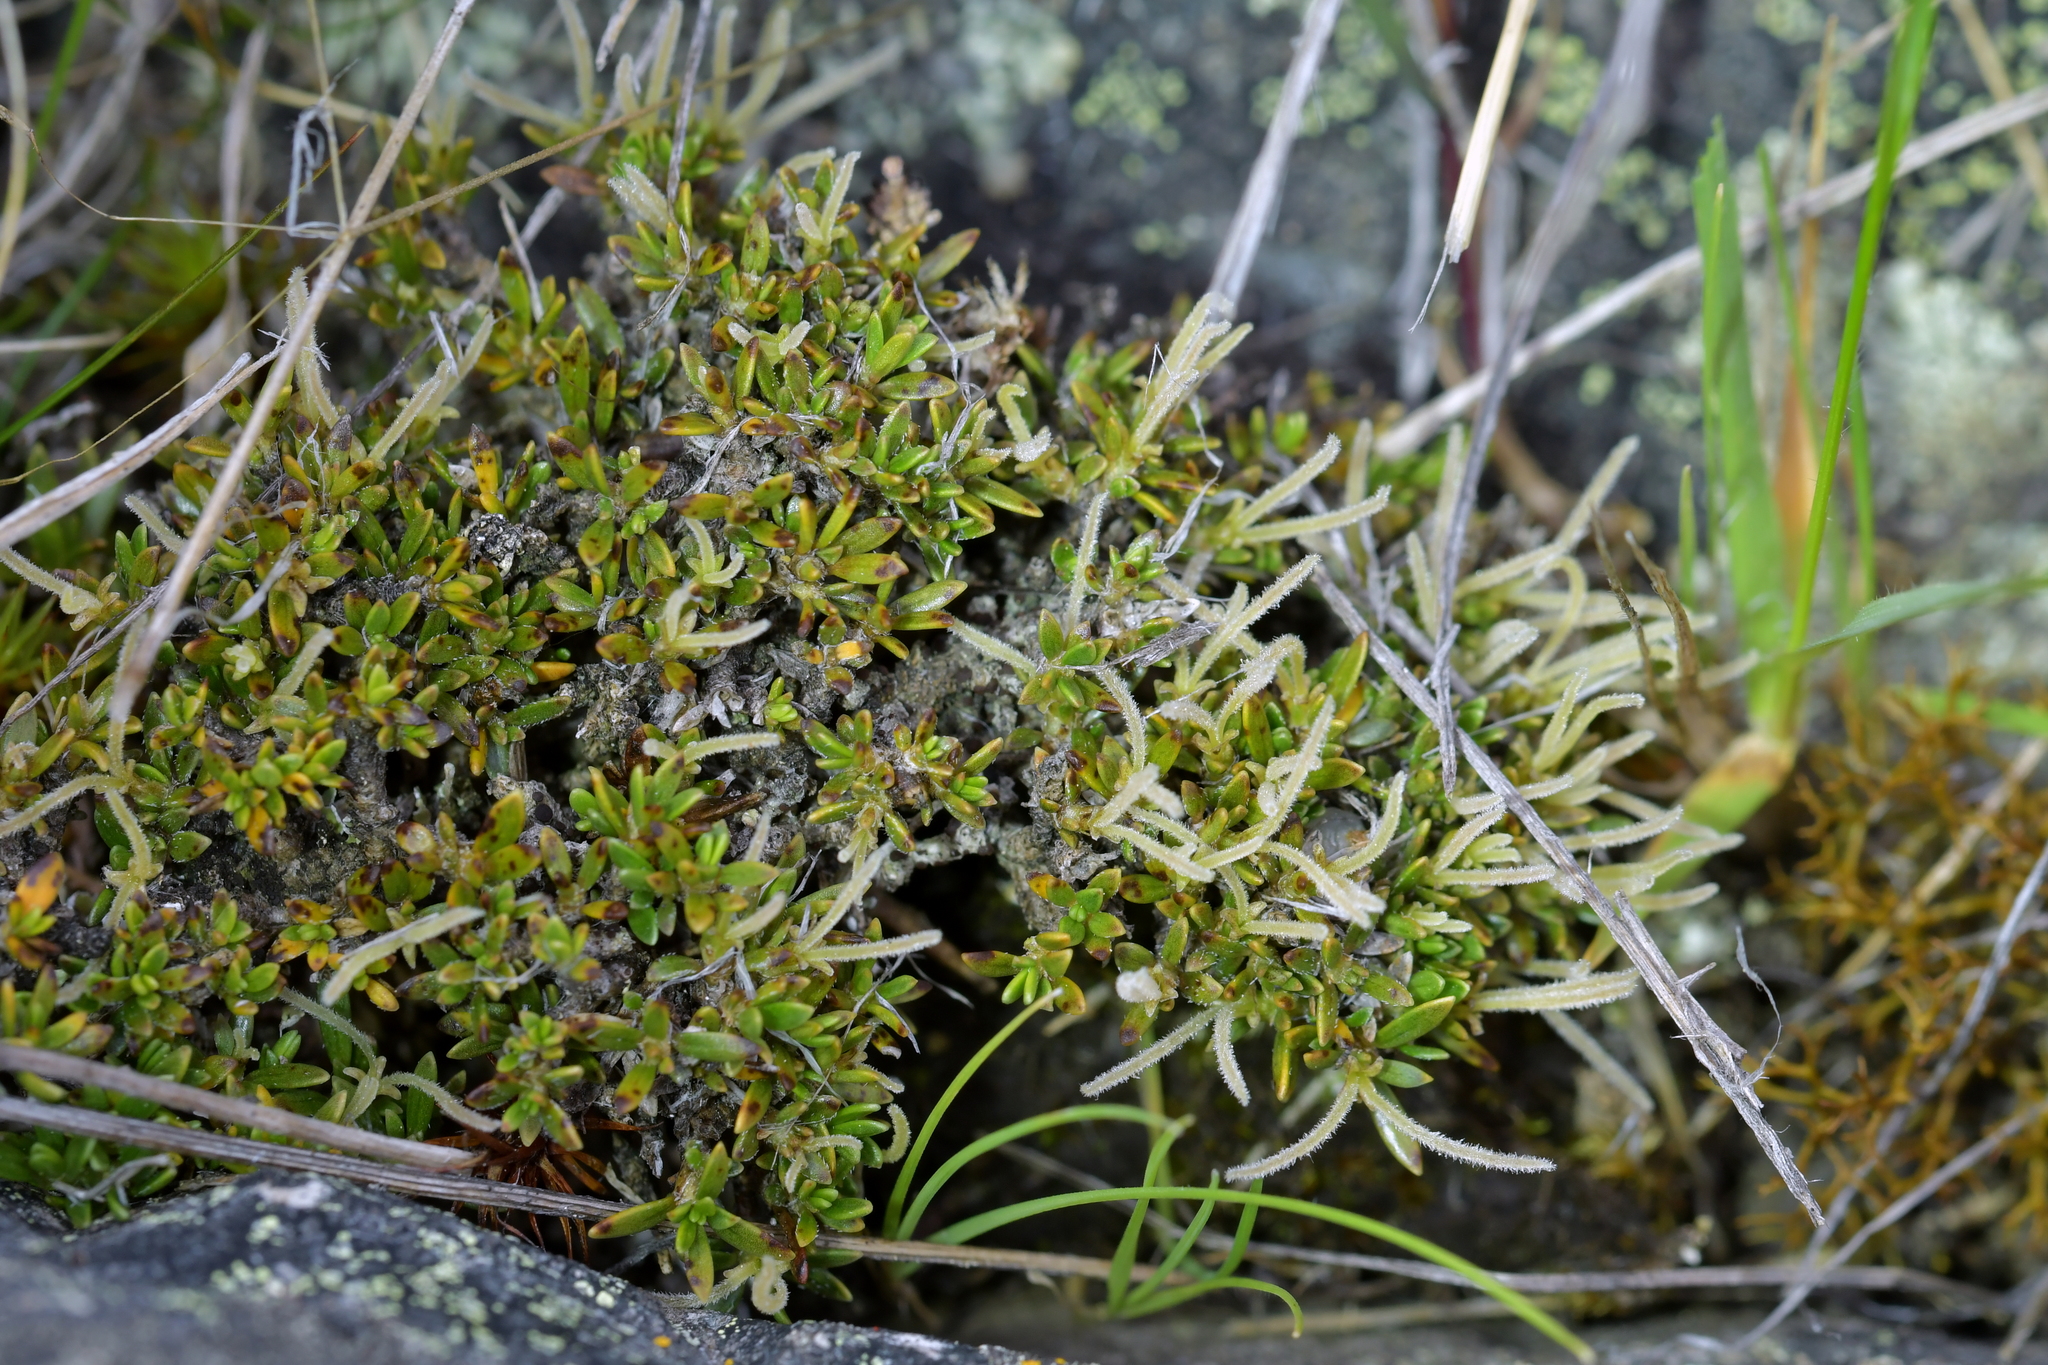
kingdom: Plantae
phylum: Tracheophyta
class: Magnoliopsida
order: Gentianales
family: Rubiaceae
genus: Coprosma
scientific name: Coprosma petriei
